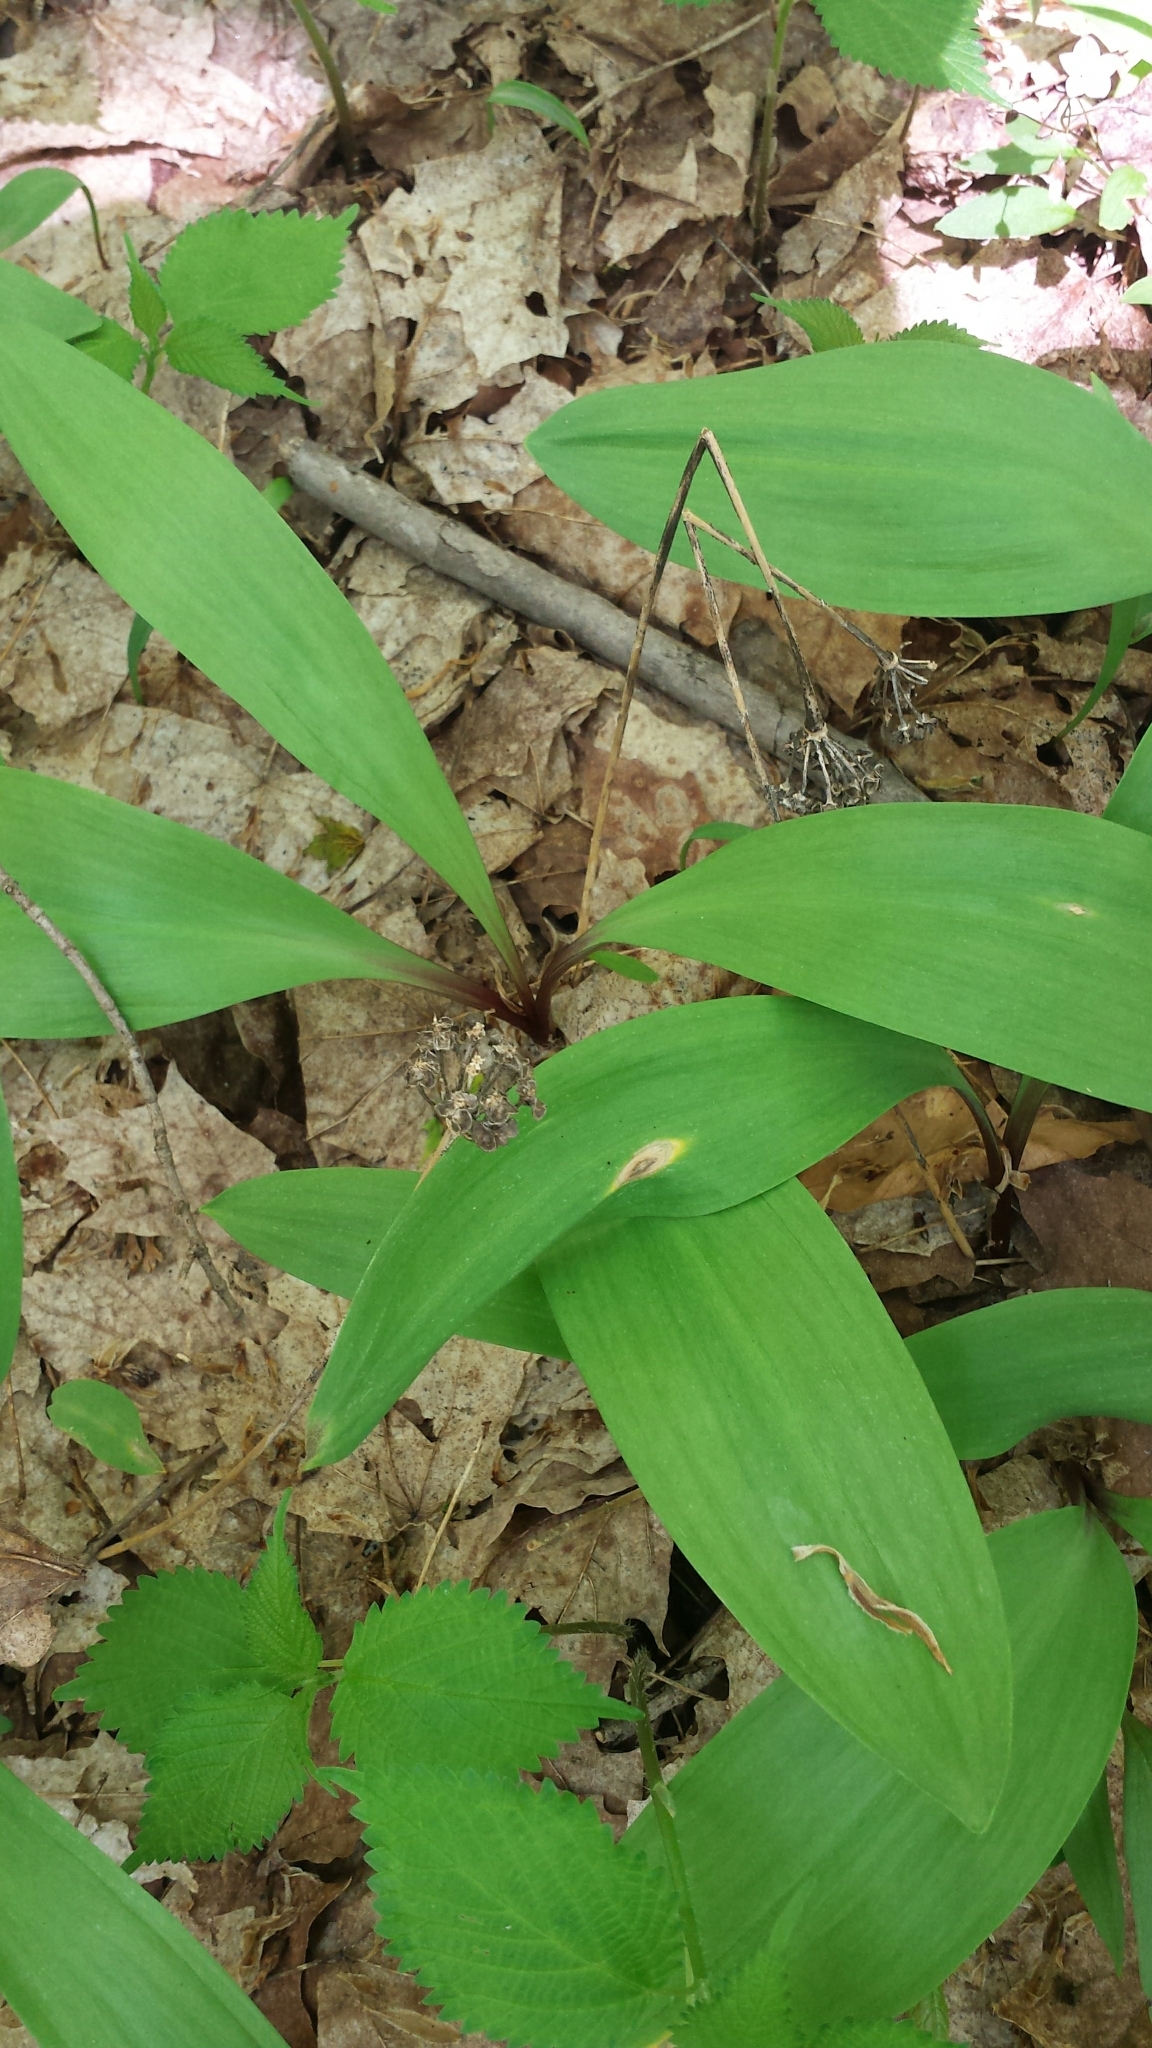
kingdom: Plantae
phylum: Tracheophyta
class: Liliopsida
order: Asparagales
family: Amaryllidaceae
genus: Allium
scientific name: Allium tricoccum
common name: Ramp
